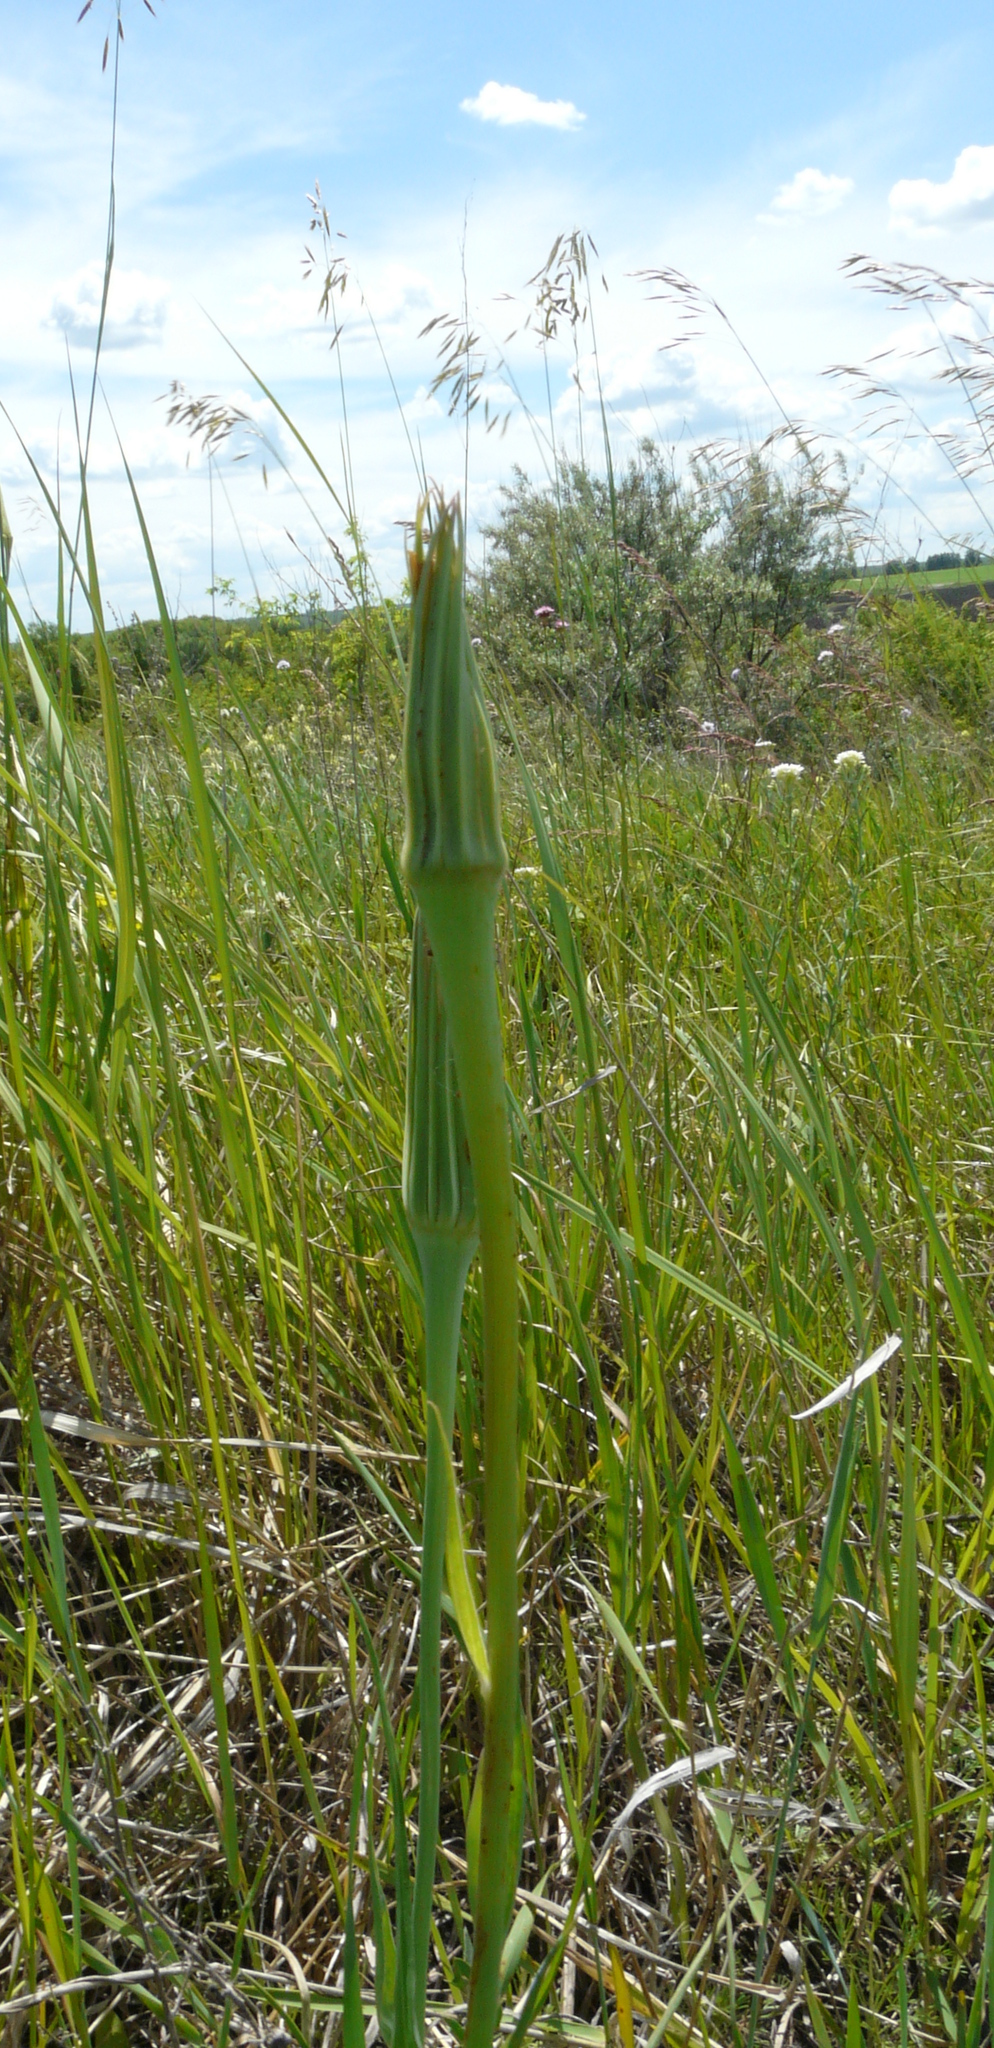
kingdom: Plantae
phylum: Tracheophyta
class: Magnoliopsida
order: Asterales
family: Asteraceae
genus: Tragopogon
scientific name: Tragopogon dubius
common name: Yellow salsify
